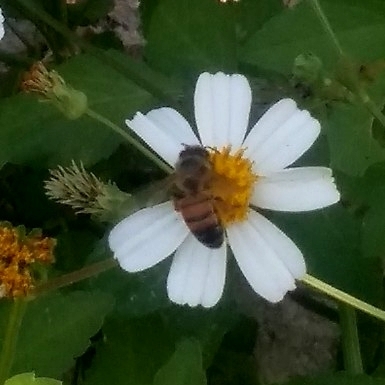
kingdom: Animalia
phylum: Arthropoda
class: Insecta
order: Hymenoptera
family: Apidae
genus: Apis
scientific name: Apis mellifera
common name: Honey bee
